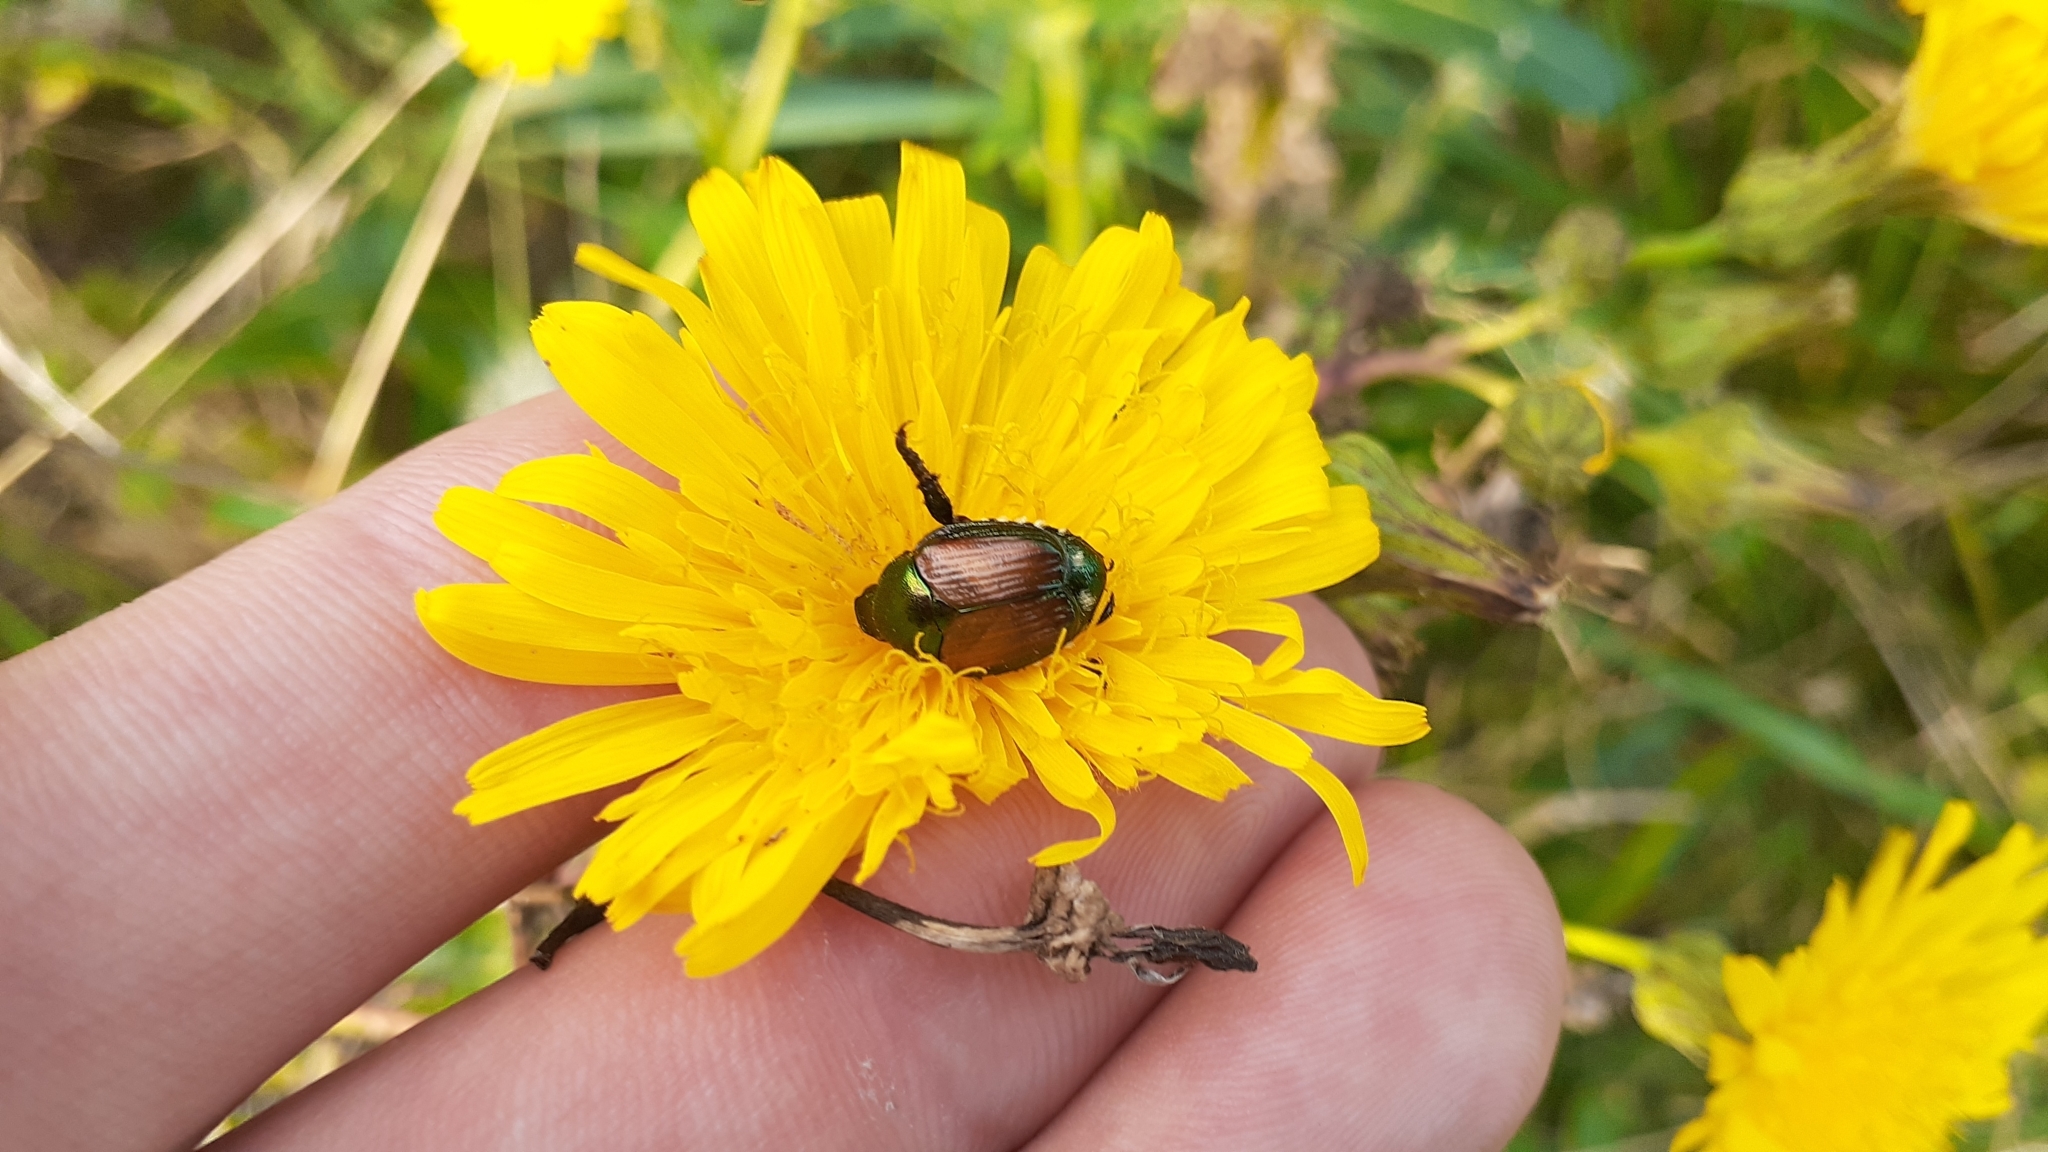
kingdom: Animalia
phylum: Arthropoda
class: Insecta
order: Coleoptera
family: Scarabaeidae
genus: Popillia
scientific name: Popillia japonica
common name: Japanese beetle
